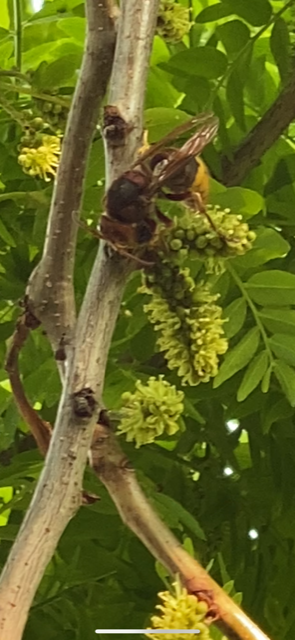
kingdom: Animalia
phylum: Arthropoda
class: Insecta
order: Hymenoptera
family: Vespidae
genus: Vespa
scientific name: Vespa crabro
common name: Hornet
